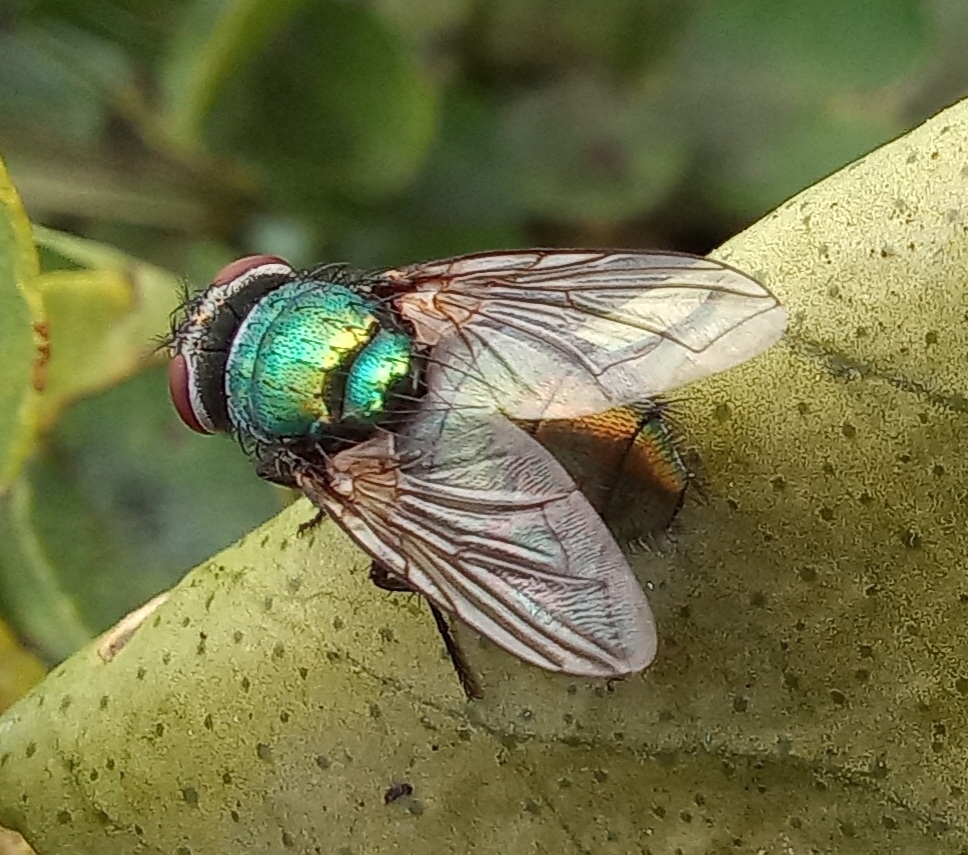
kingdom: Animalia
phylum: Arthropoda
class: Insecta
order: Diptera
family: Calliphoridae
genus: Lucilia
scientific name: Lucilia sericata
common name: Blow fly
